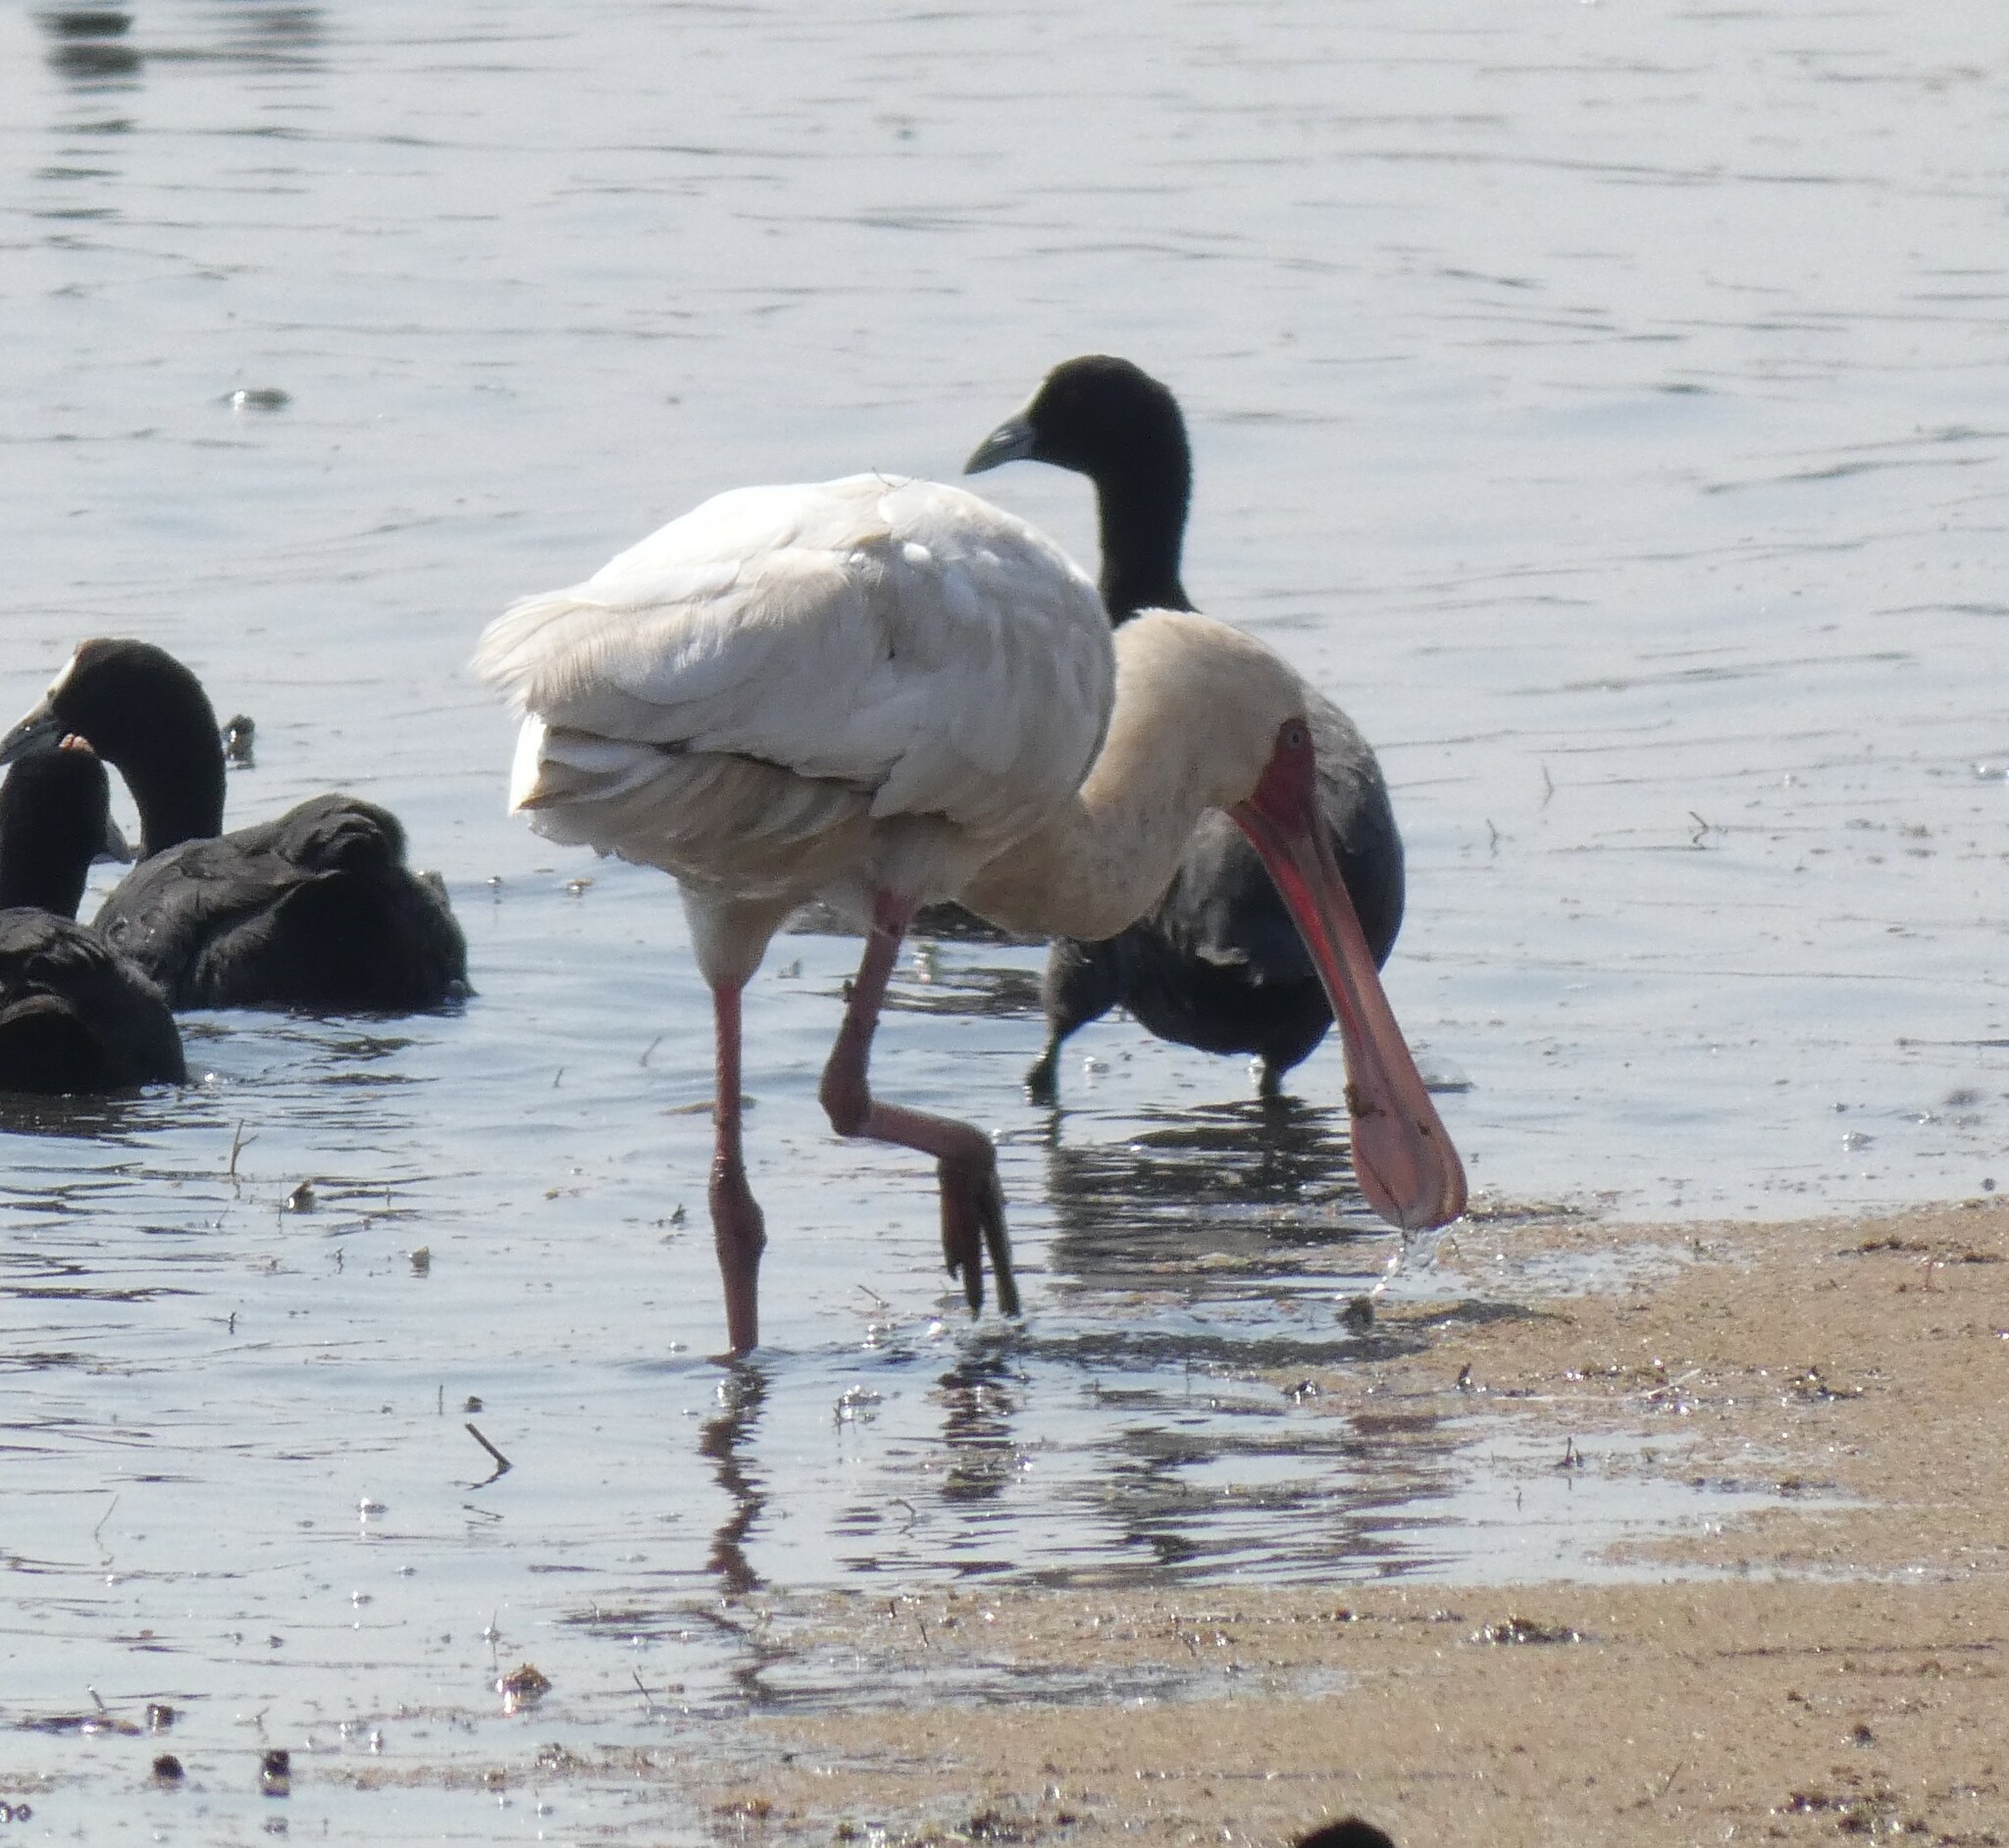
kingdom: Animalia
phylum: Chordata
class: Aves
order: Pelecaniformes
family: Threskiornithidae
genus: Platalea
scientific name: Platalea alba
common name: African spoonbill
